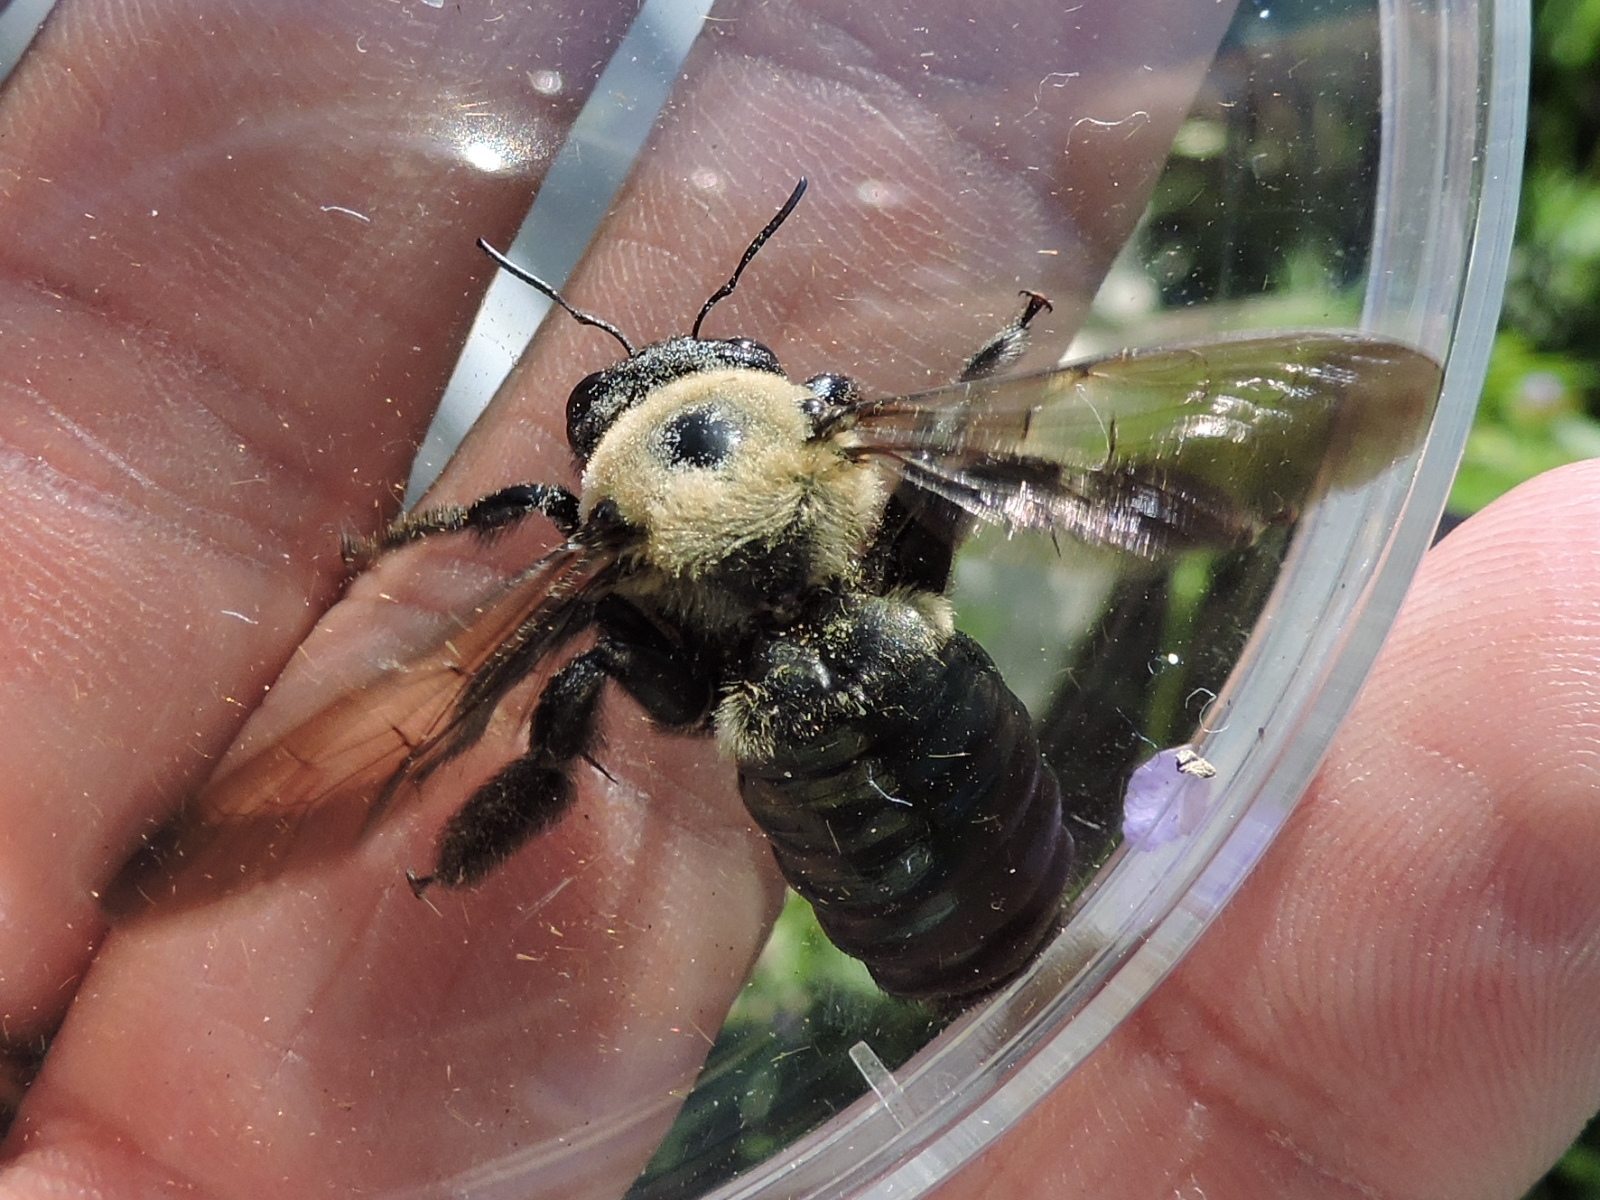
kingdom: Animalia
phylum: Arthropoda
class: Insecta
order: Hymenoptera
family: Apidae
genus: Xylocopa
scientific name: Xylocopa virginica
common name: Carpenter bee
